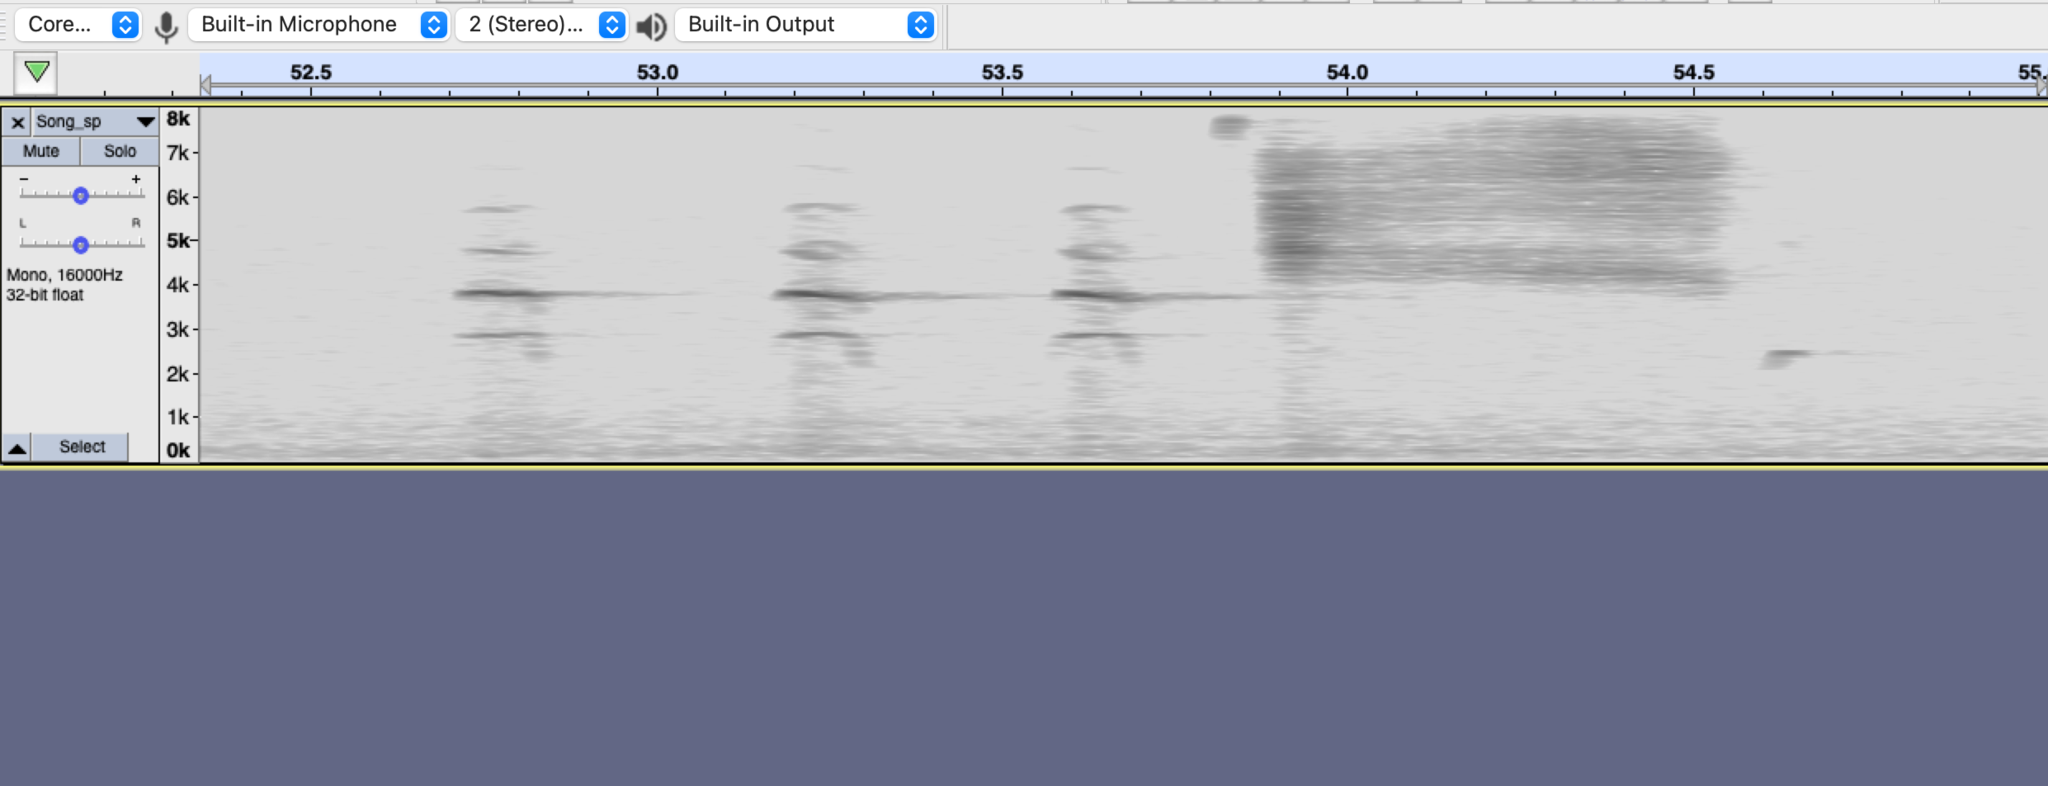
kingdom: Animalia
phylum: Chordata
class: Aves
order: Passeriformes
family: Passerellidae
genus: Melospiza
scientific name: Melospiza melodia
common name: Song sparrow
